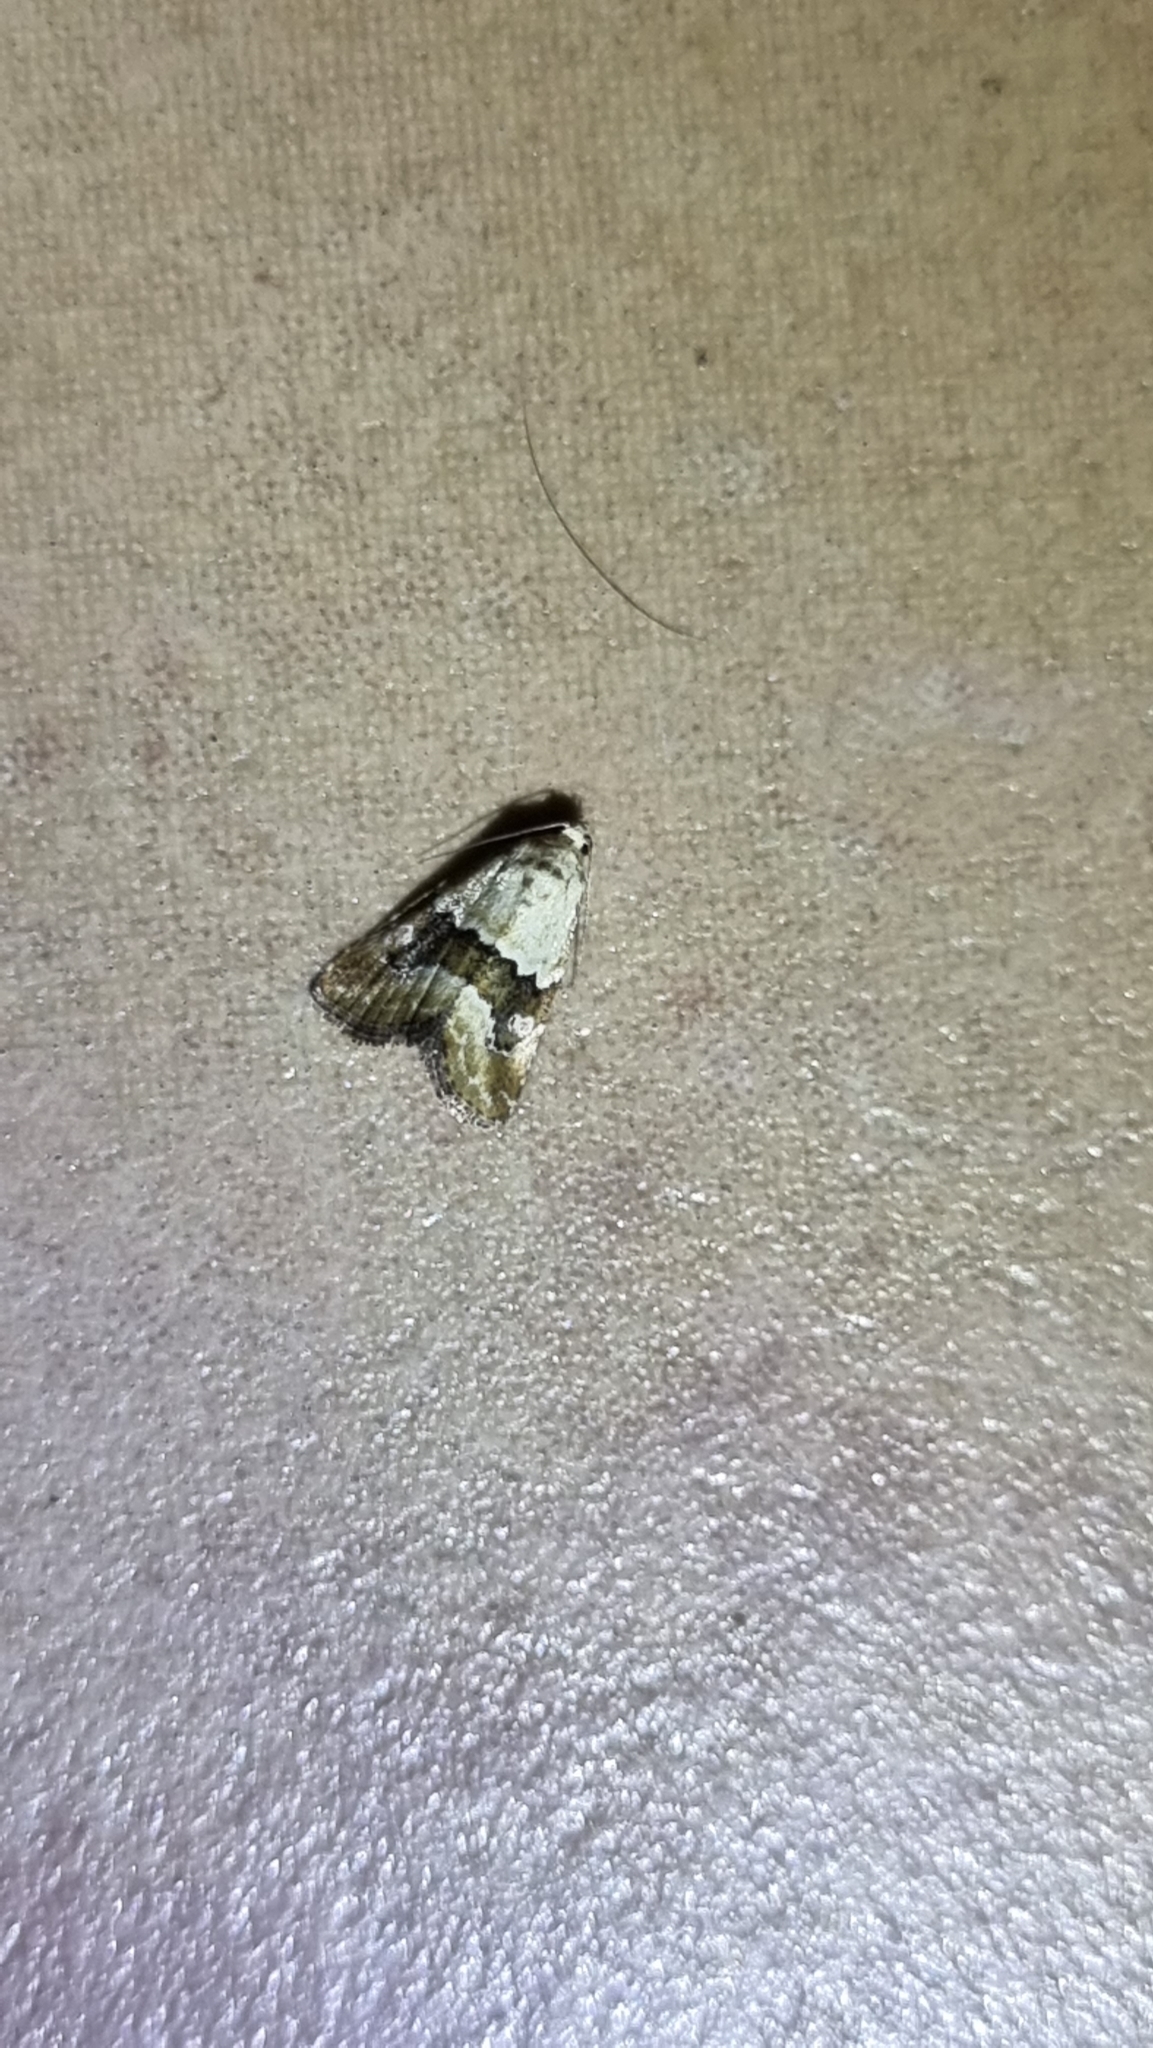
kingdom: Animalia
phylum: Arthropoda
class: Insecta
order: Lepidoptera
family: Noctuidae
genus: Maliattha
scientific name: Maliattha amorpha
